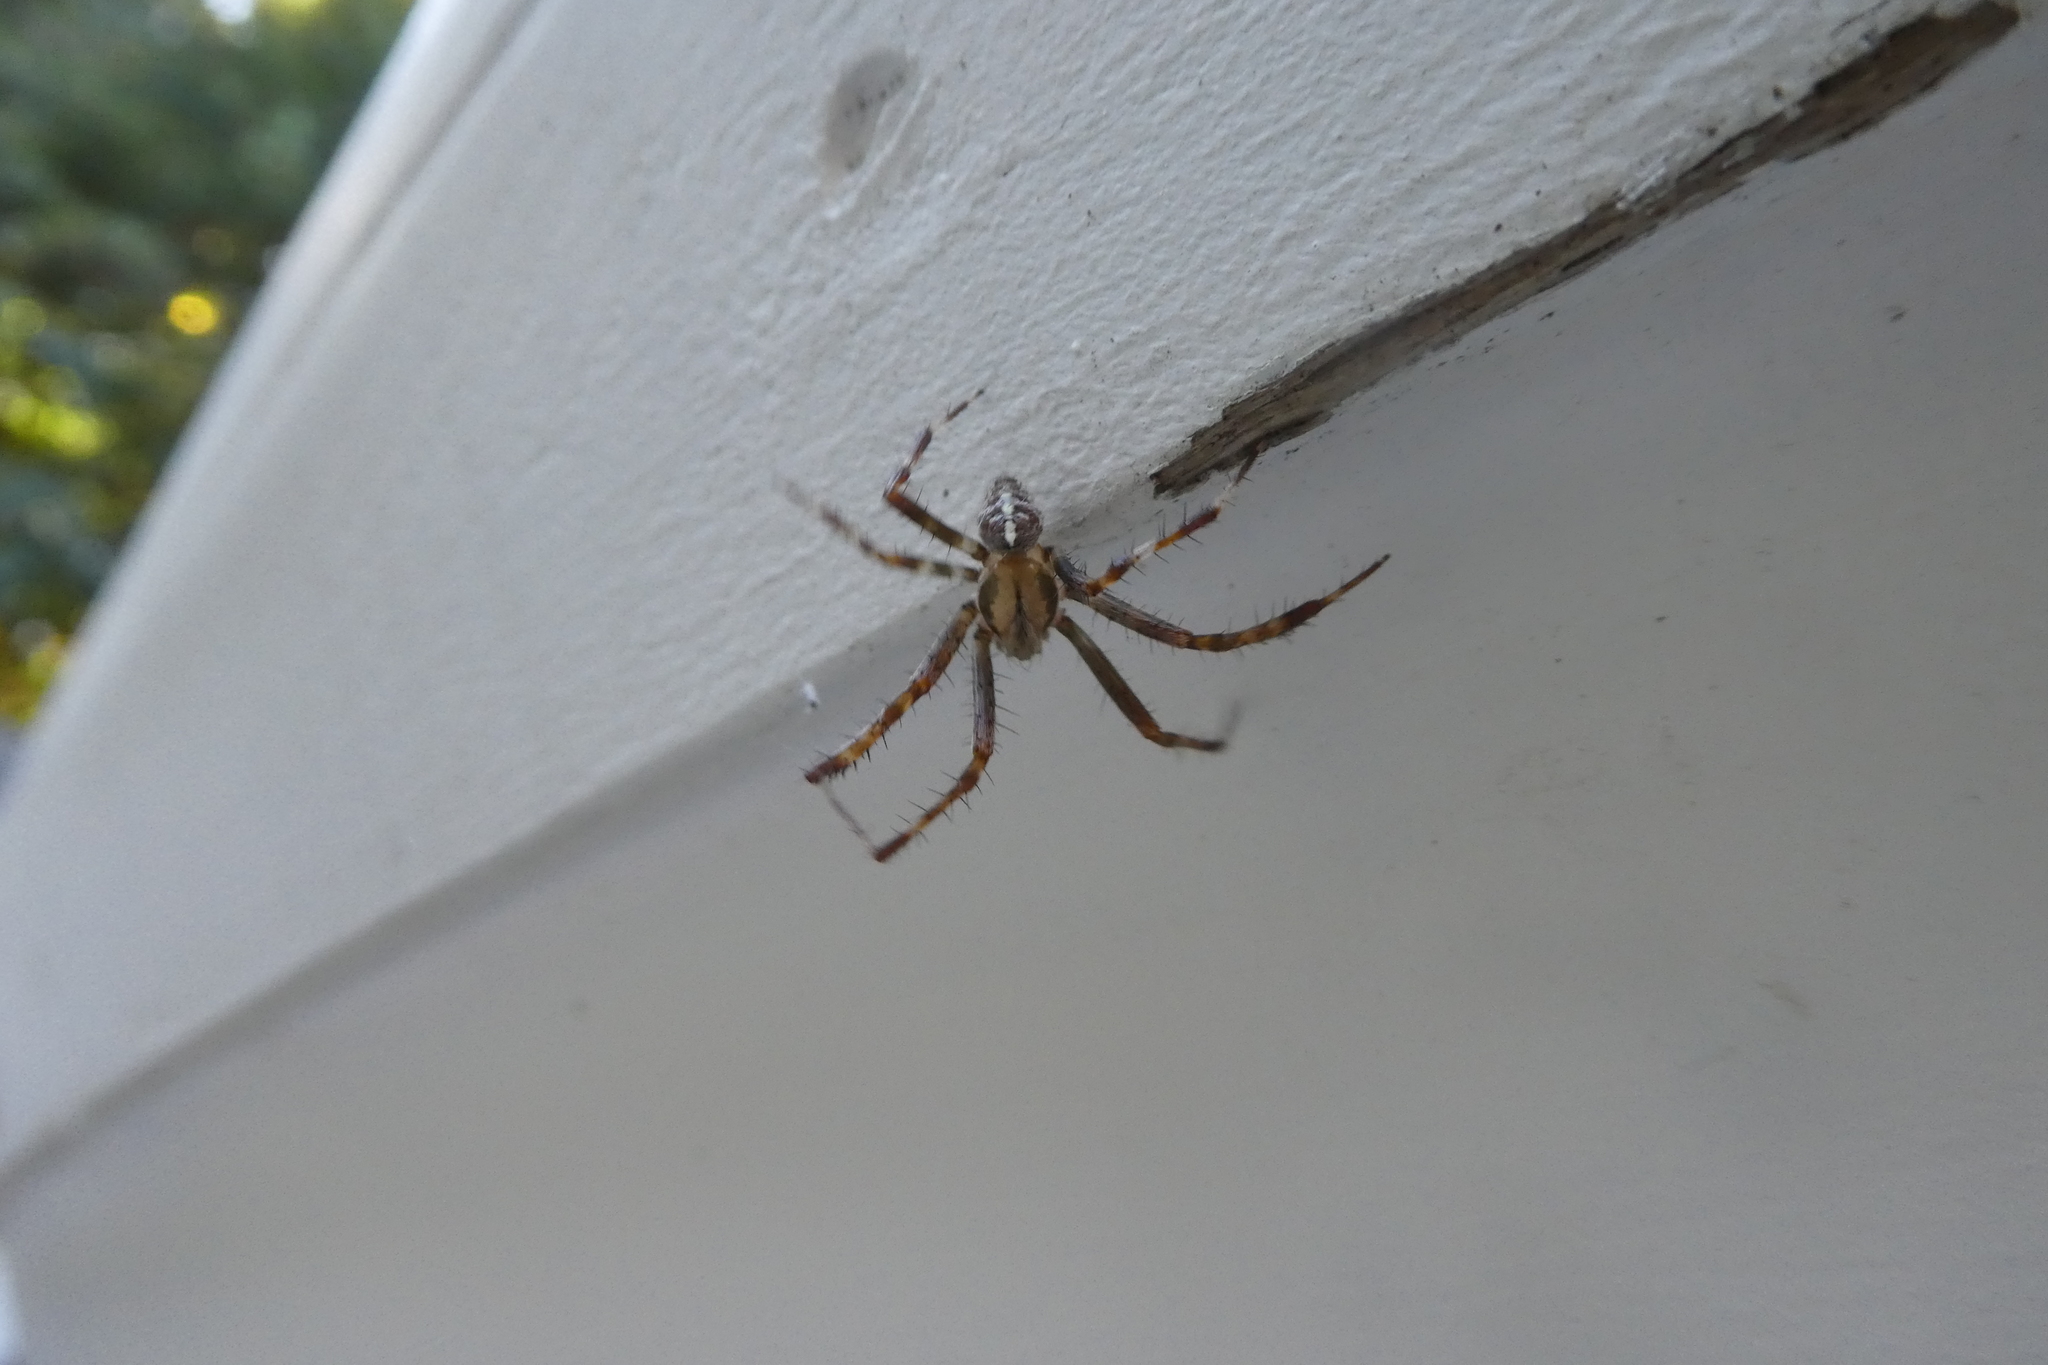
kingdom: Animalia
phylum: Arthropoda
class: Arachnida
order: Araneae
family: Araneidae
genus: Araneus
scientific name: Araneus diadematus
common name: Cross orbweaver
